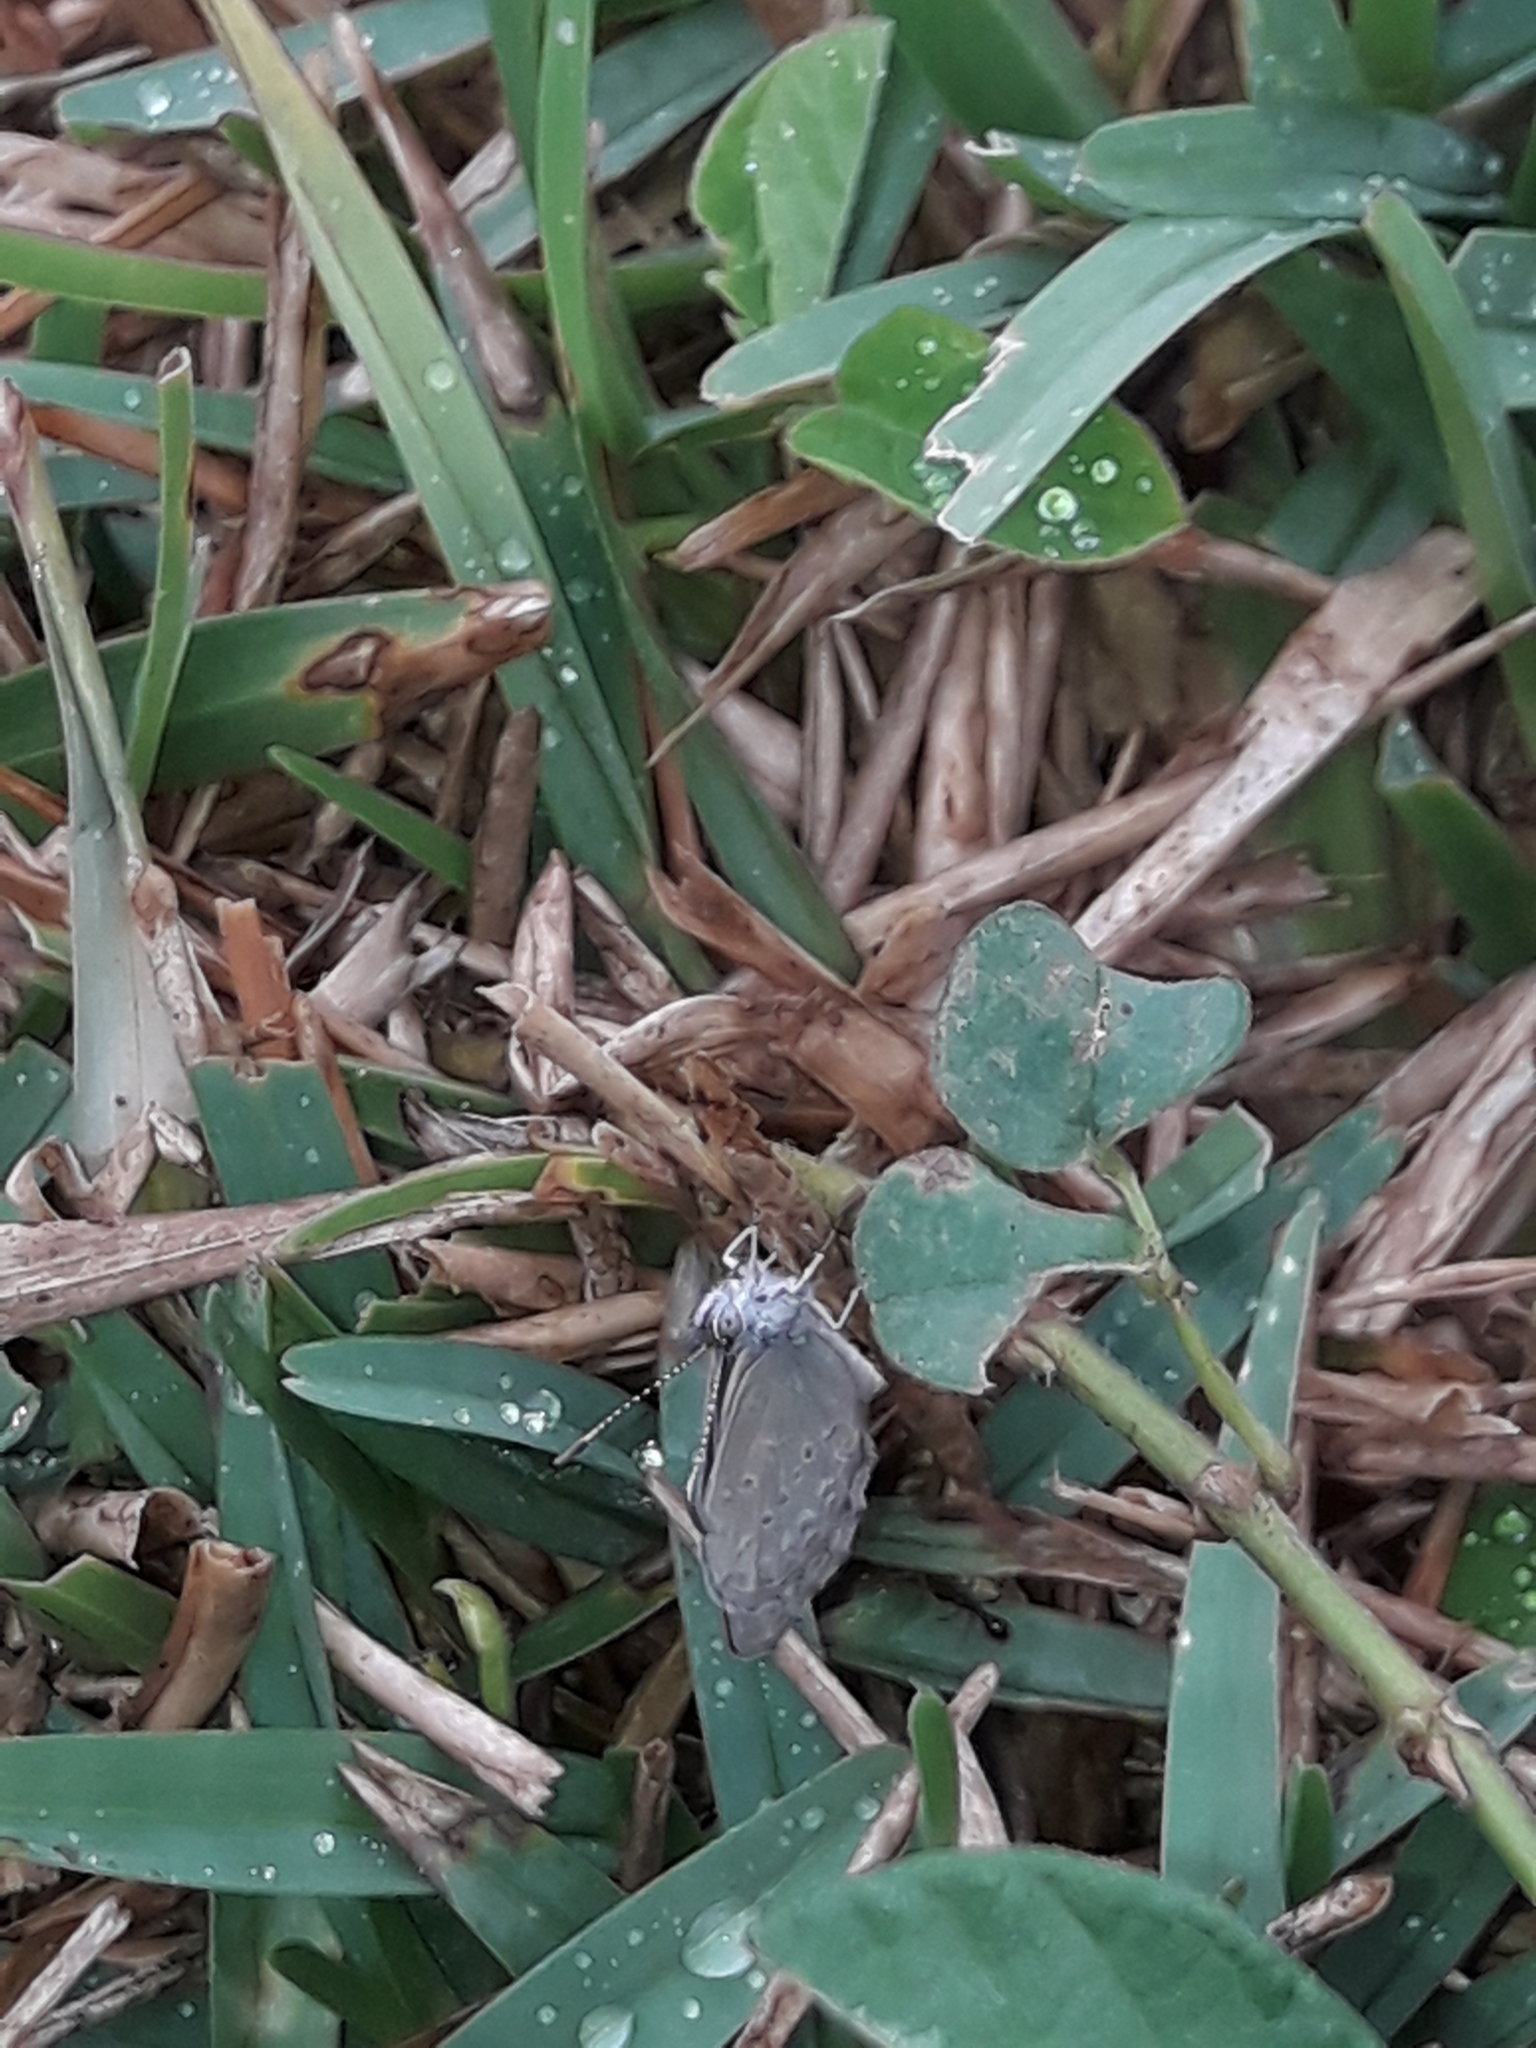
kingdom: Animalia
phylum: Arthropoda
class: Insecta
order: Lepidoptera
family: Lycaenidae
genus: Zizina
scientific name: Zizina otis
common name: Lesser grass blue
